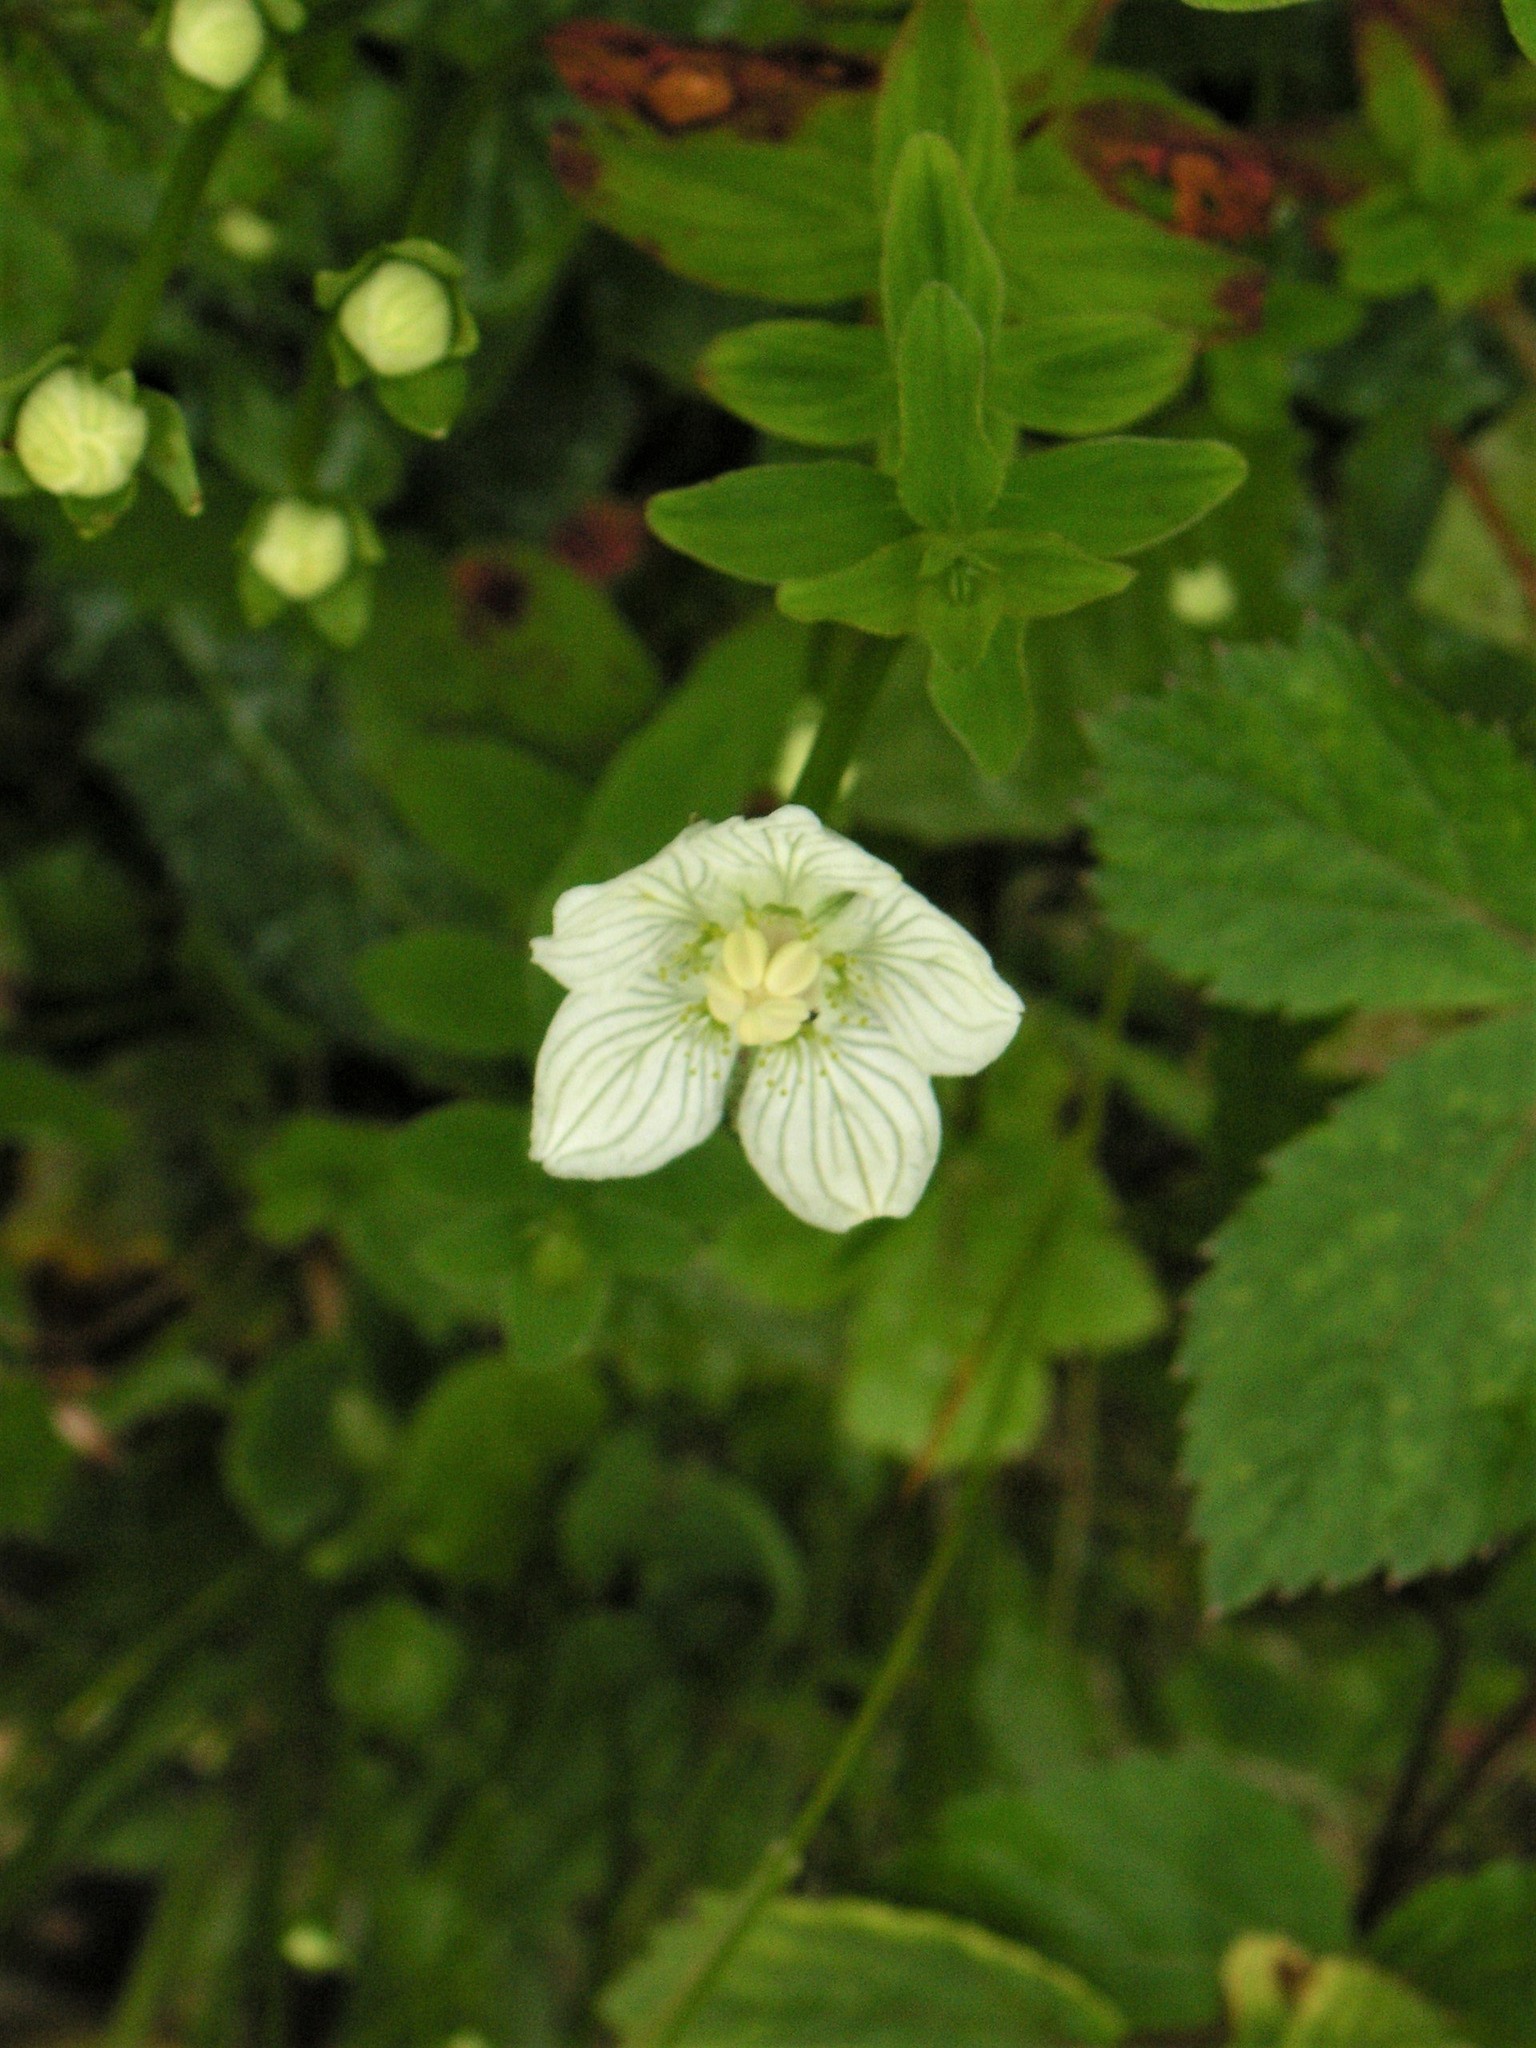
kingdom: Plantae
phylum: Tracheophyta
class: Magnoliopsida
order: Celastrales
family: Parnassiaceae
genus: Parnassia
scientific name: Parnassia palustris
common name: Grass-of-parnassus
